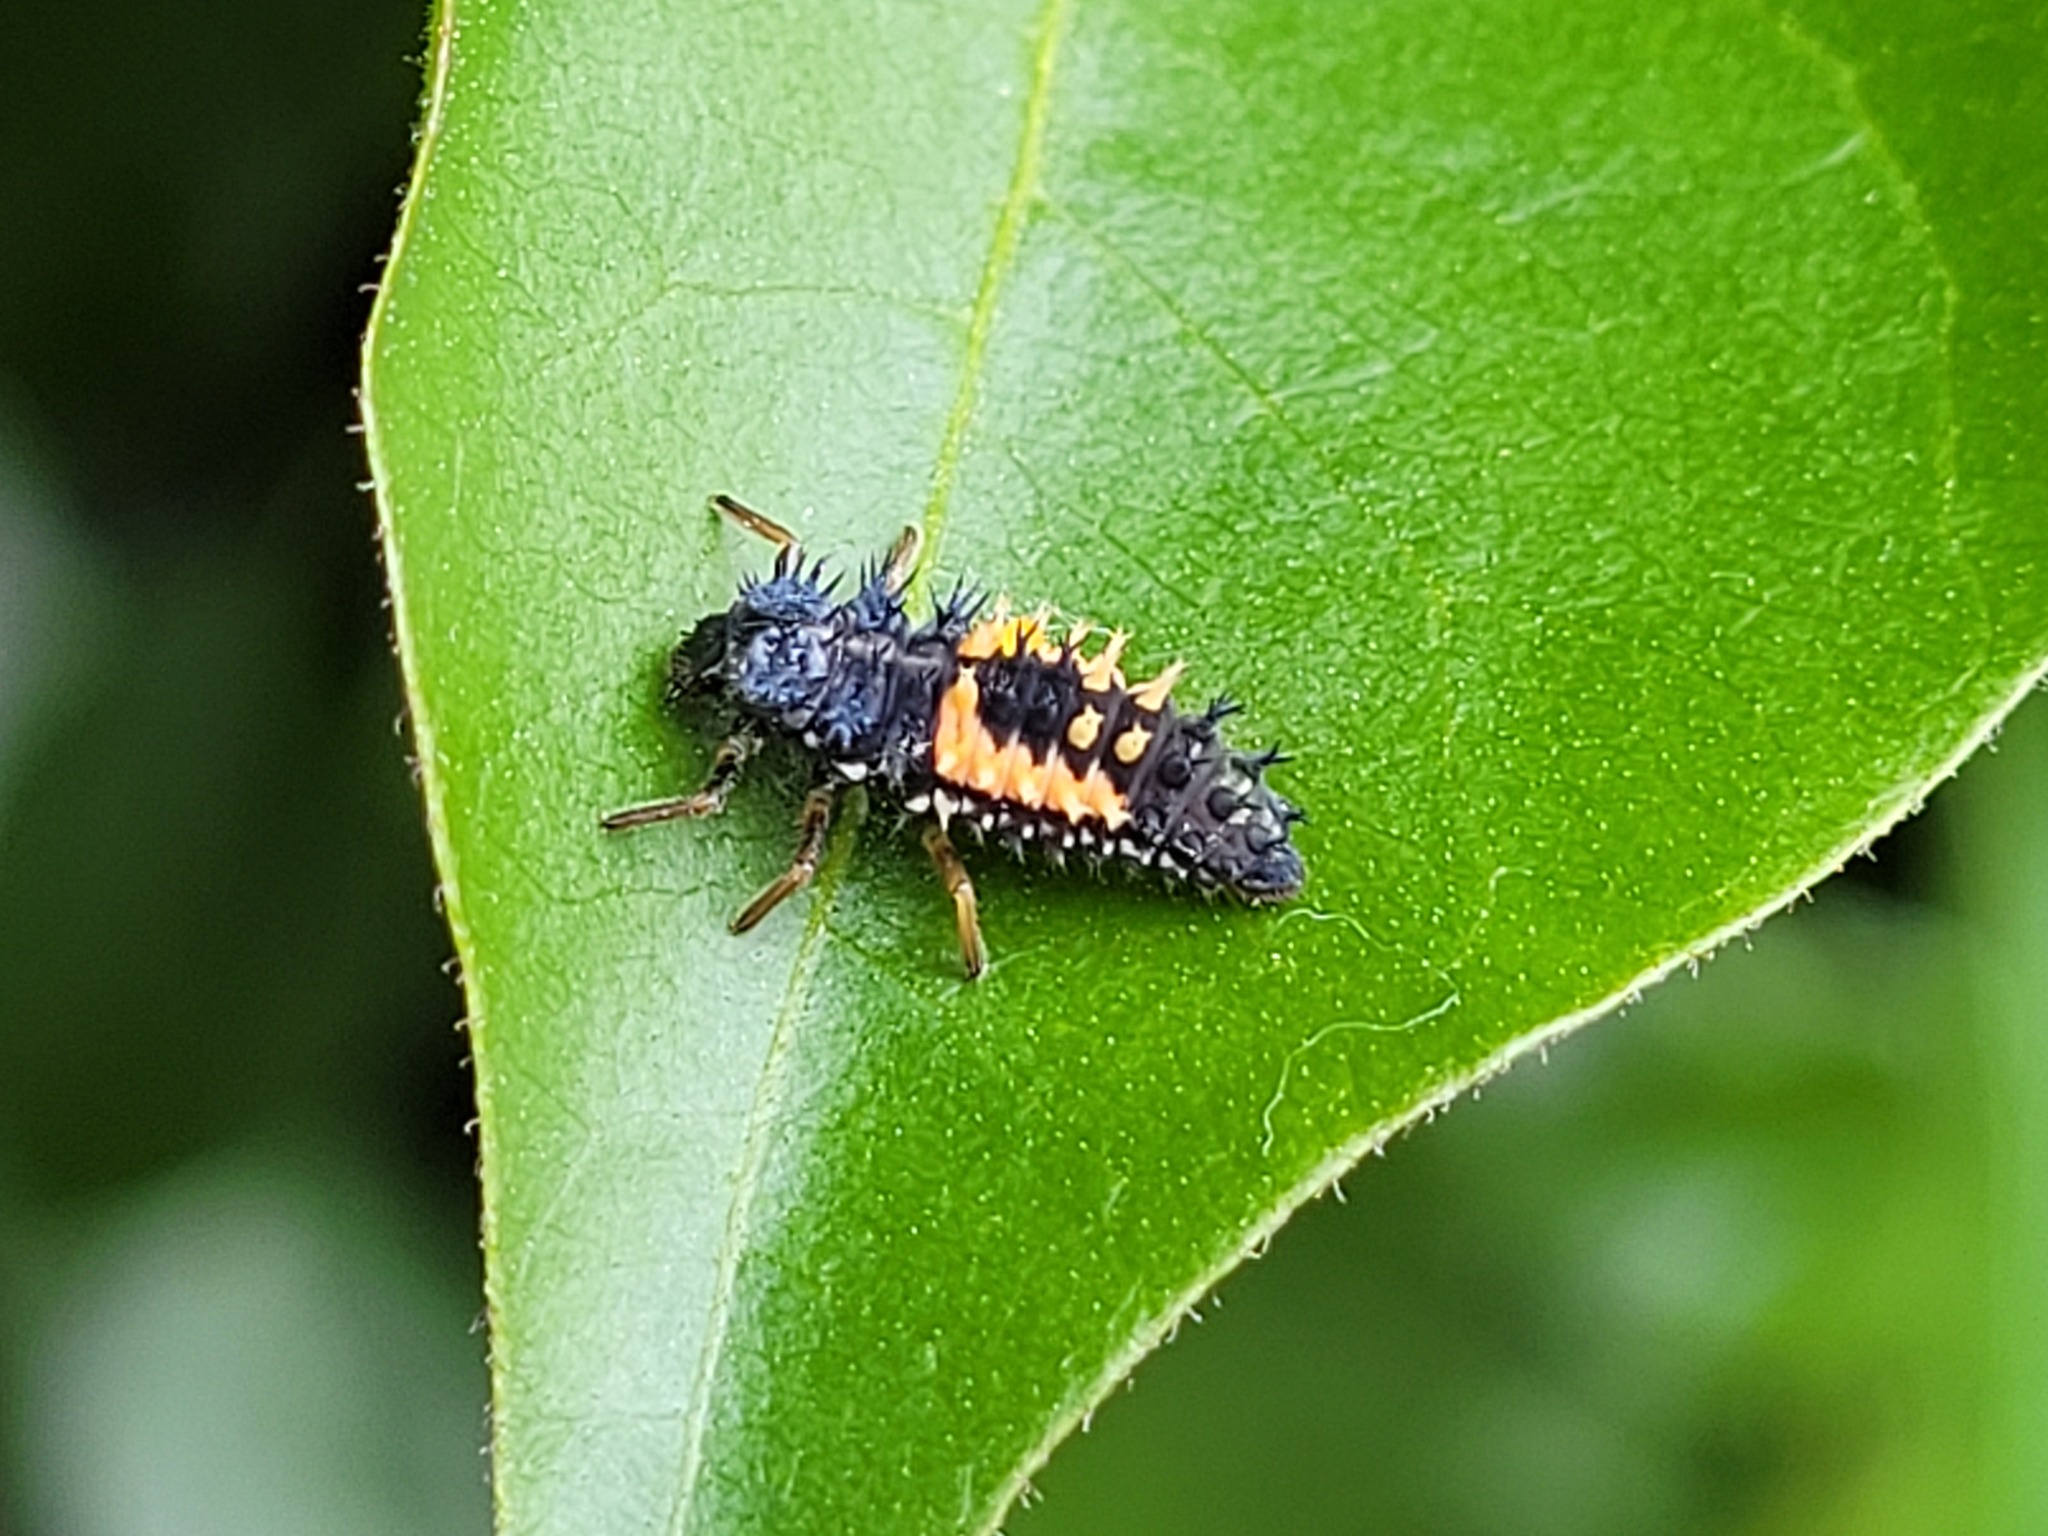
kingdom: Animalia
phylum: Arthropoda
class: Insecta
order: Coleoptera
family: Coccinellidae
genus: Harmonia
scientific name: Harmonia axyridis
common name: Harlequin ladybird
